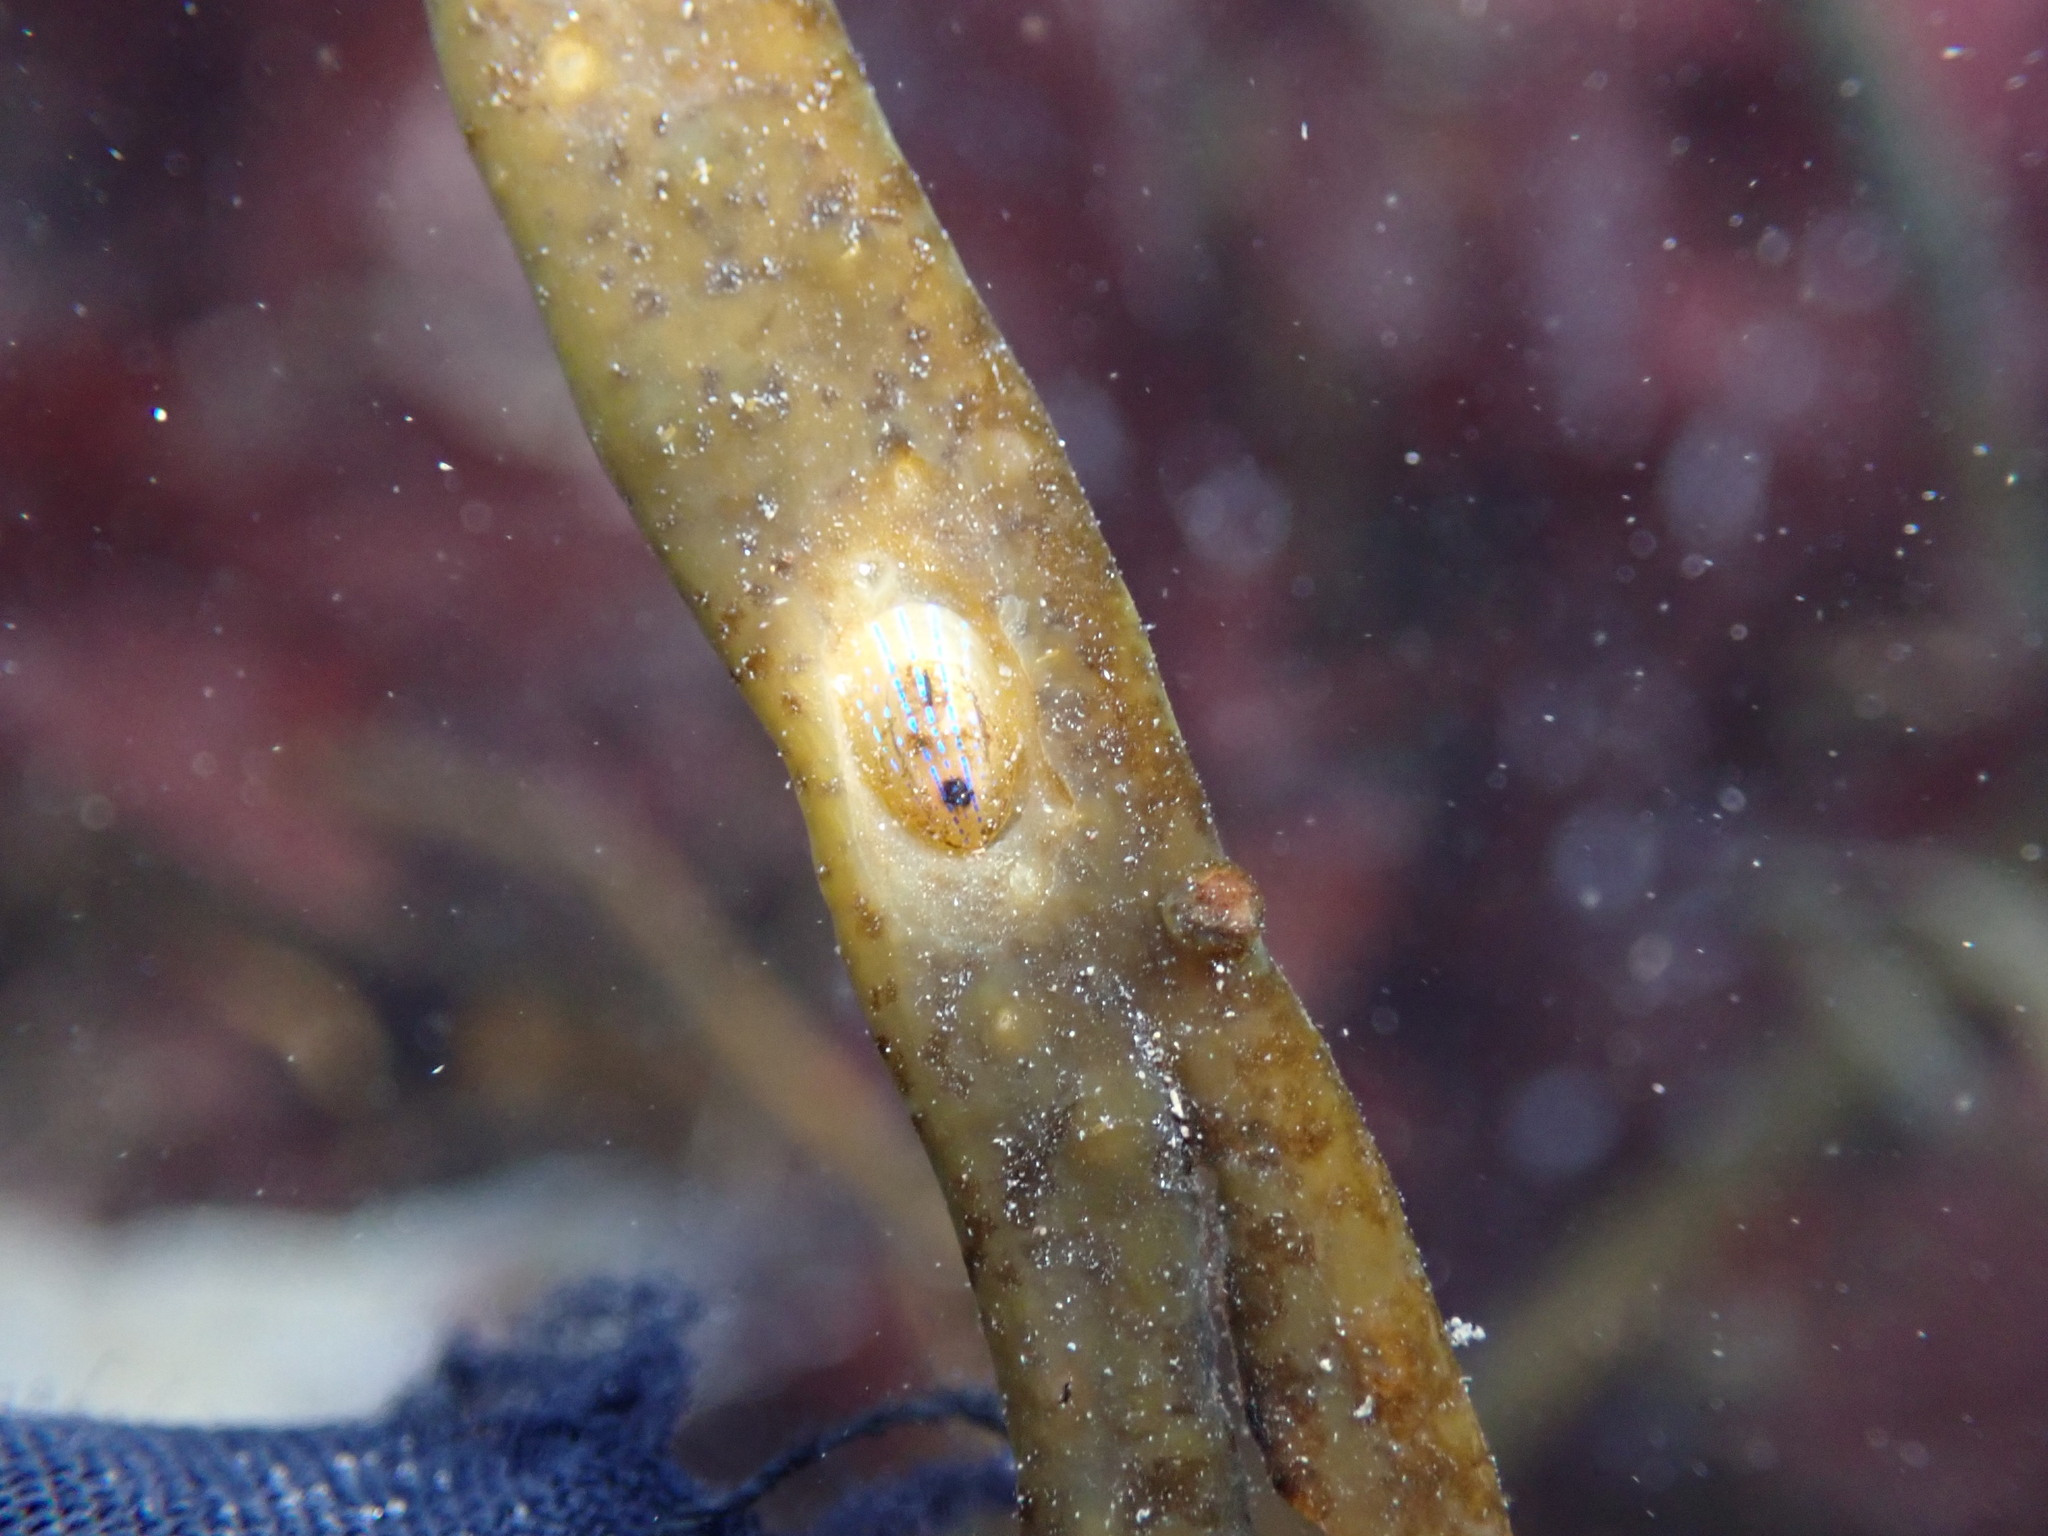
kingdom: Animalia
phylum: Mollusca
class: Gastropoda
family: Patellidae
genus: Patella
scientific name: Patella pellucida
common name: Blue-rayed limpet
